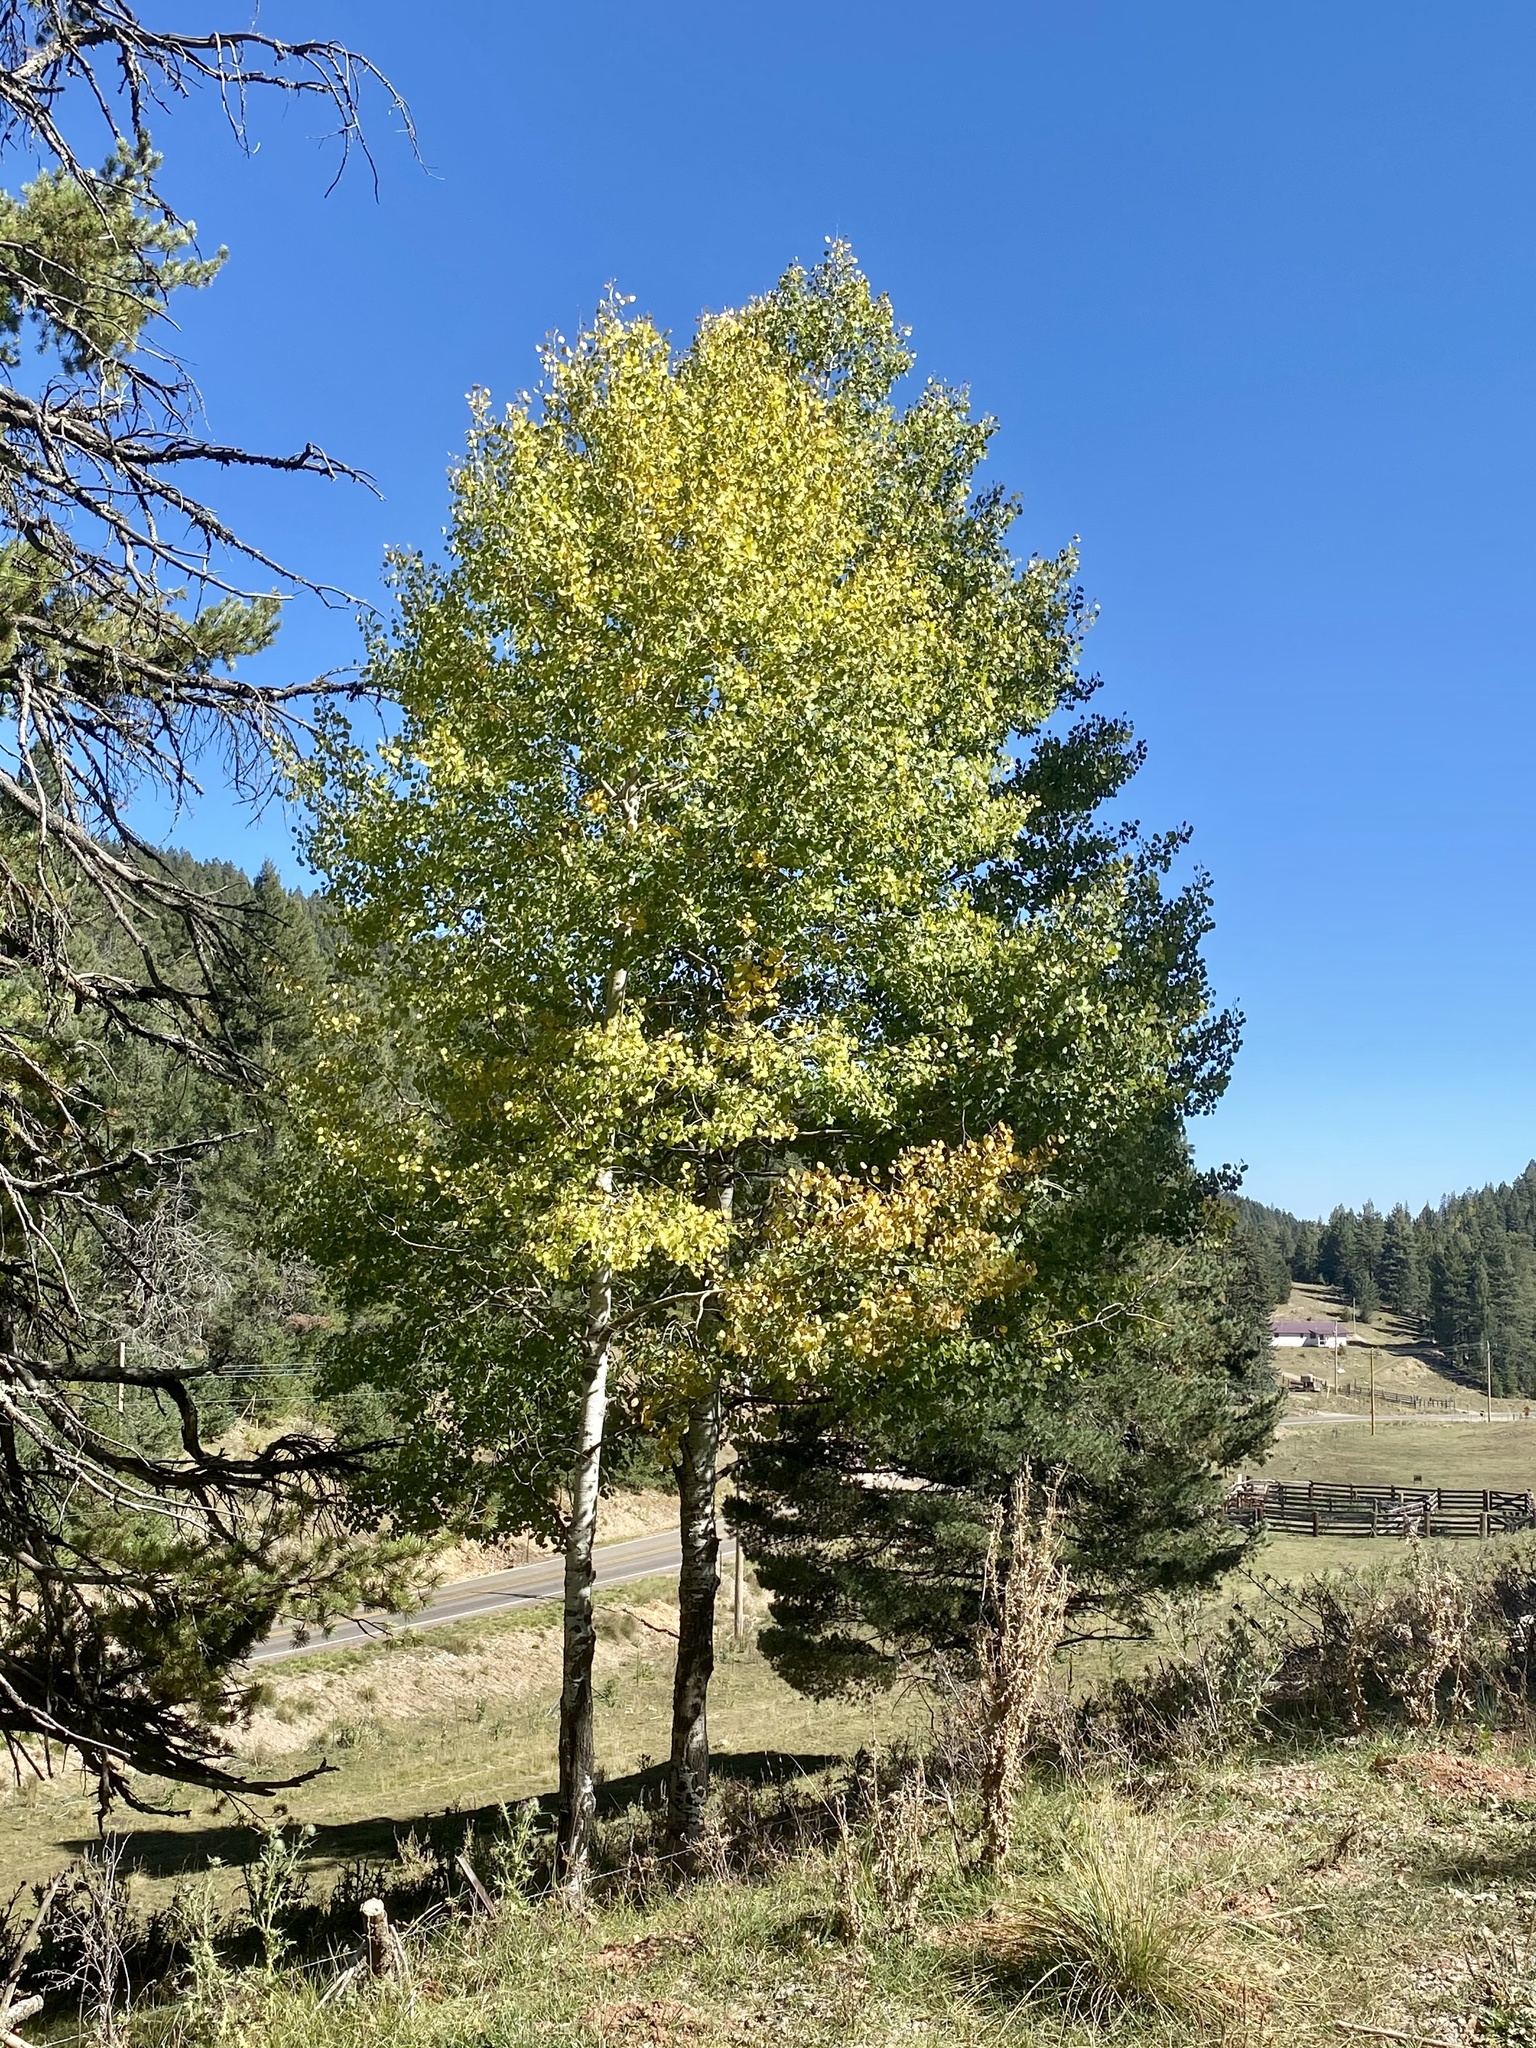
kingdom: Plantae
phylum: Tracheophyta
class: Magnoliopsida
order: Malpighiales
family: Salicaceae
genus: Populus
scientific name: Populus tremuloides
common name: Quaking aspen
